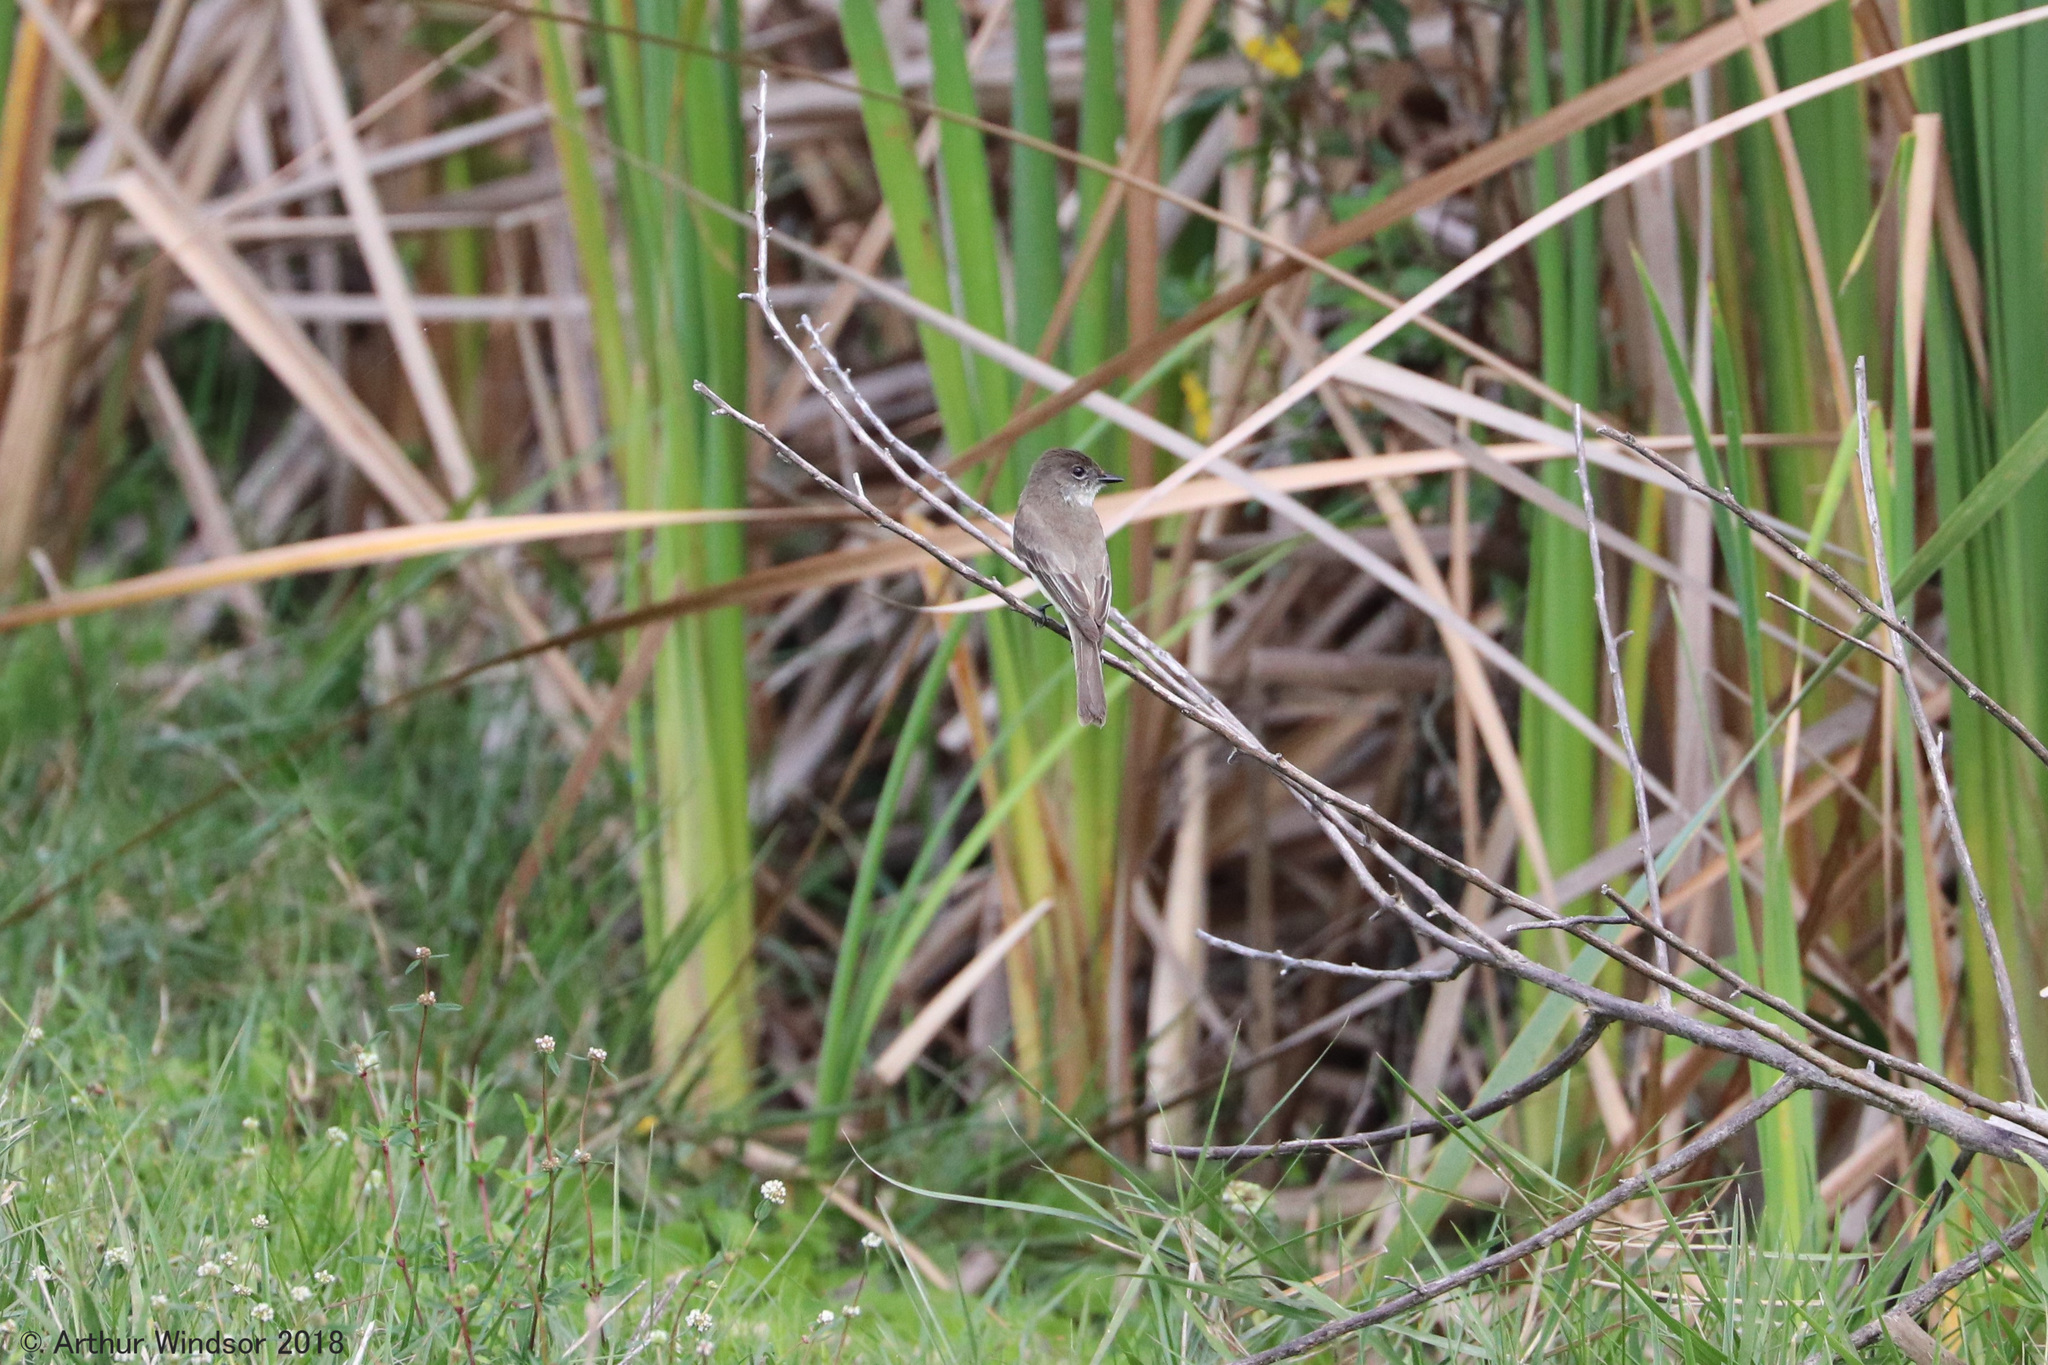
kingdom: Animalia
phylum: Chordata
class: Aves
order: Passeriformes
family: Tyrannidae
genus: Sayornis
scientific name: Sayornis phoebe
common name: Eastern phoebe
